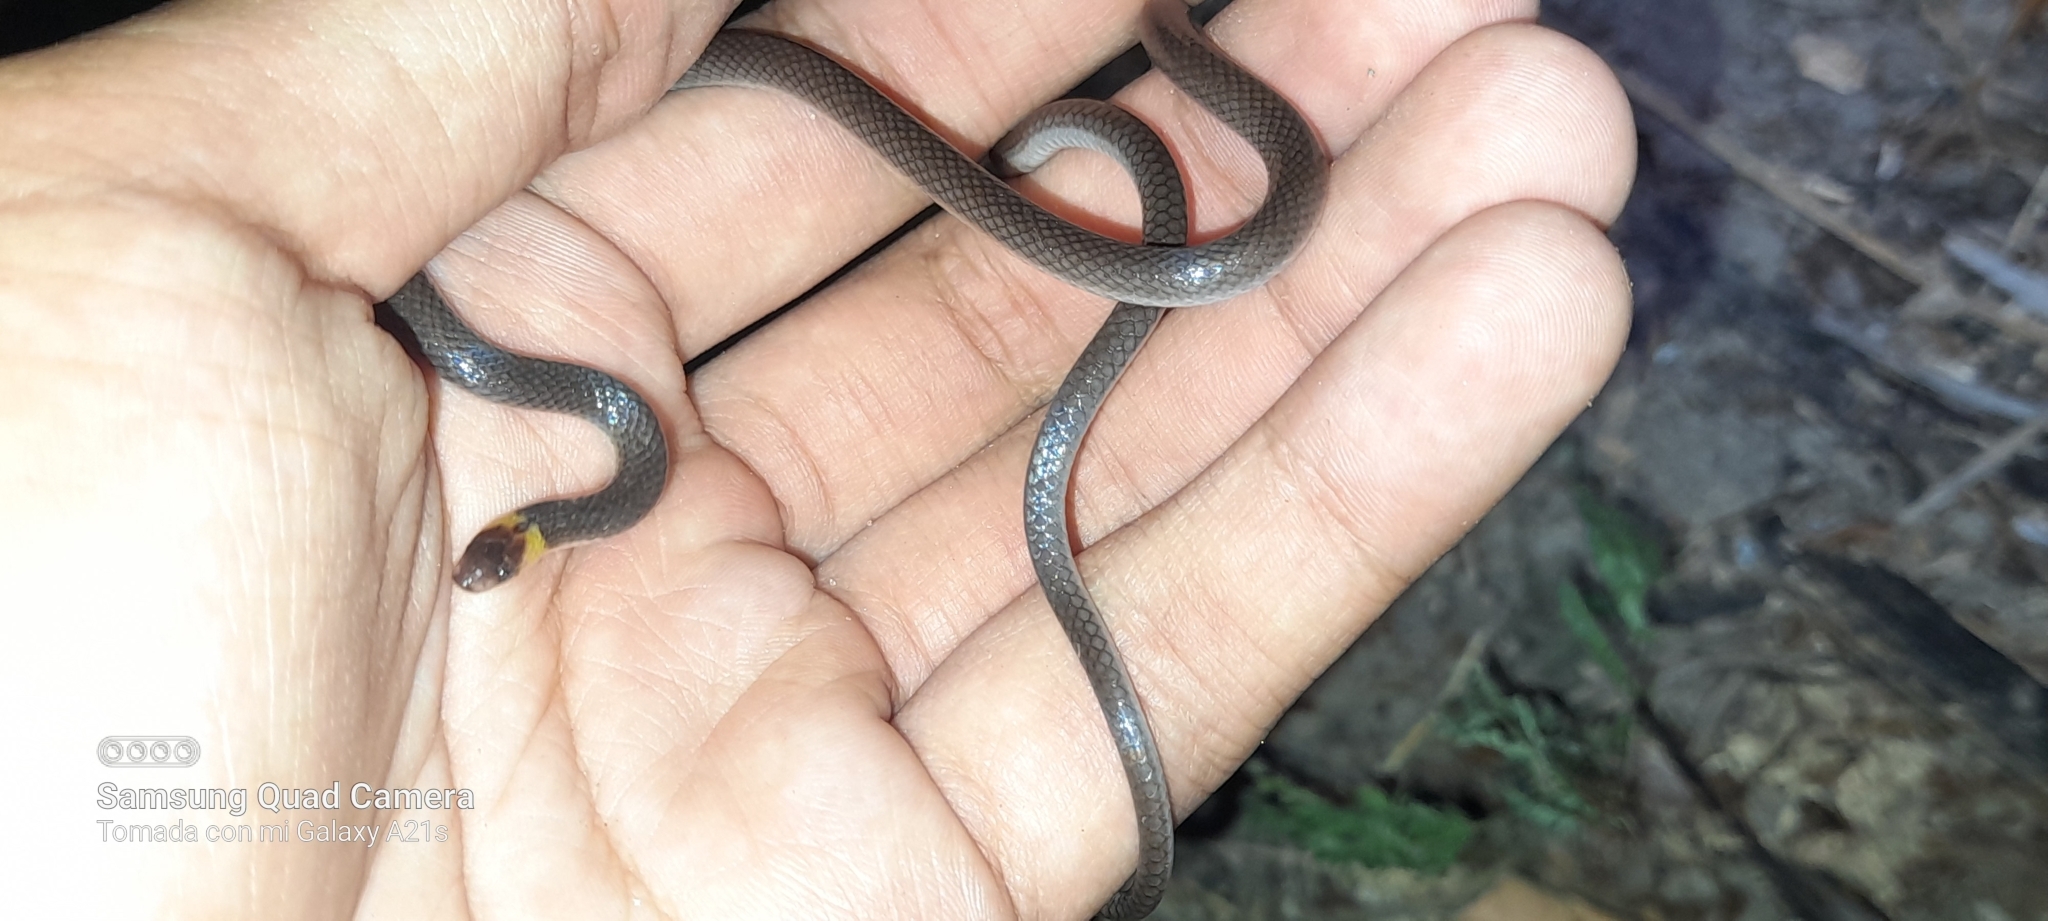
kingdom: Animalia
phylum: Chordata
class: Squamata
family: Colubridae
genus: Enulius
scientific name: Enulius flavitorques
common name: Pacific longtail snake
